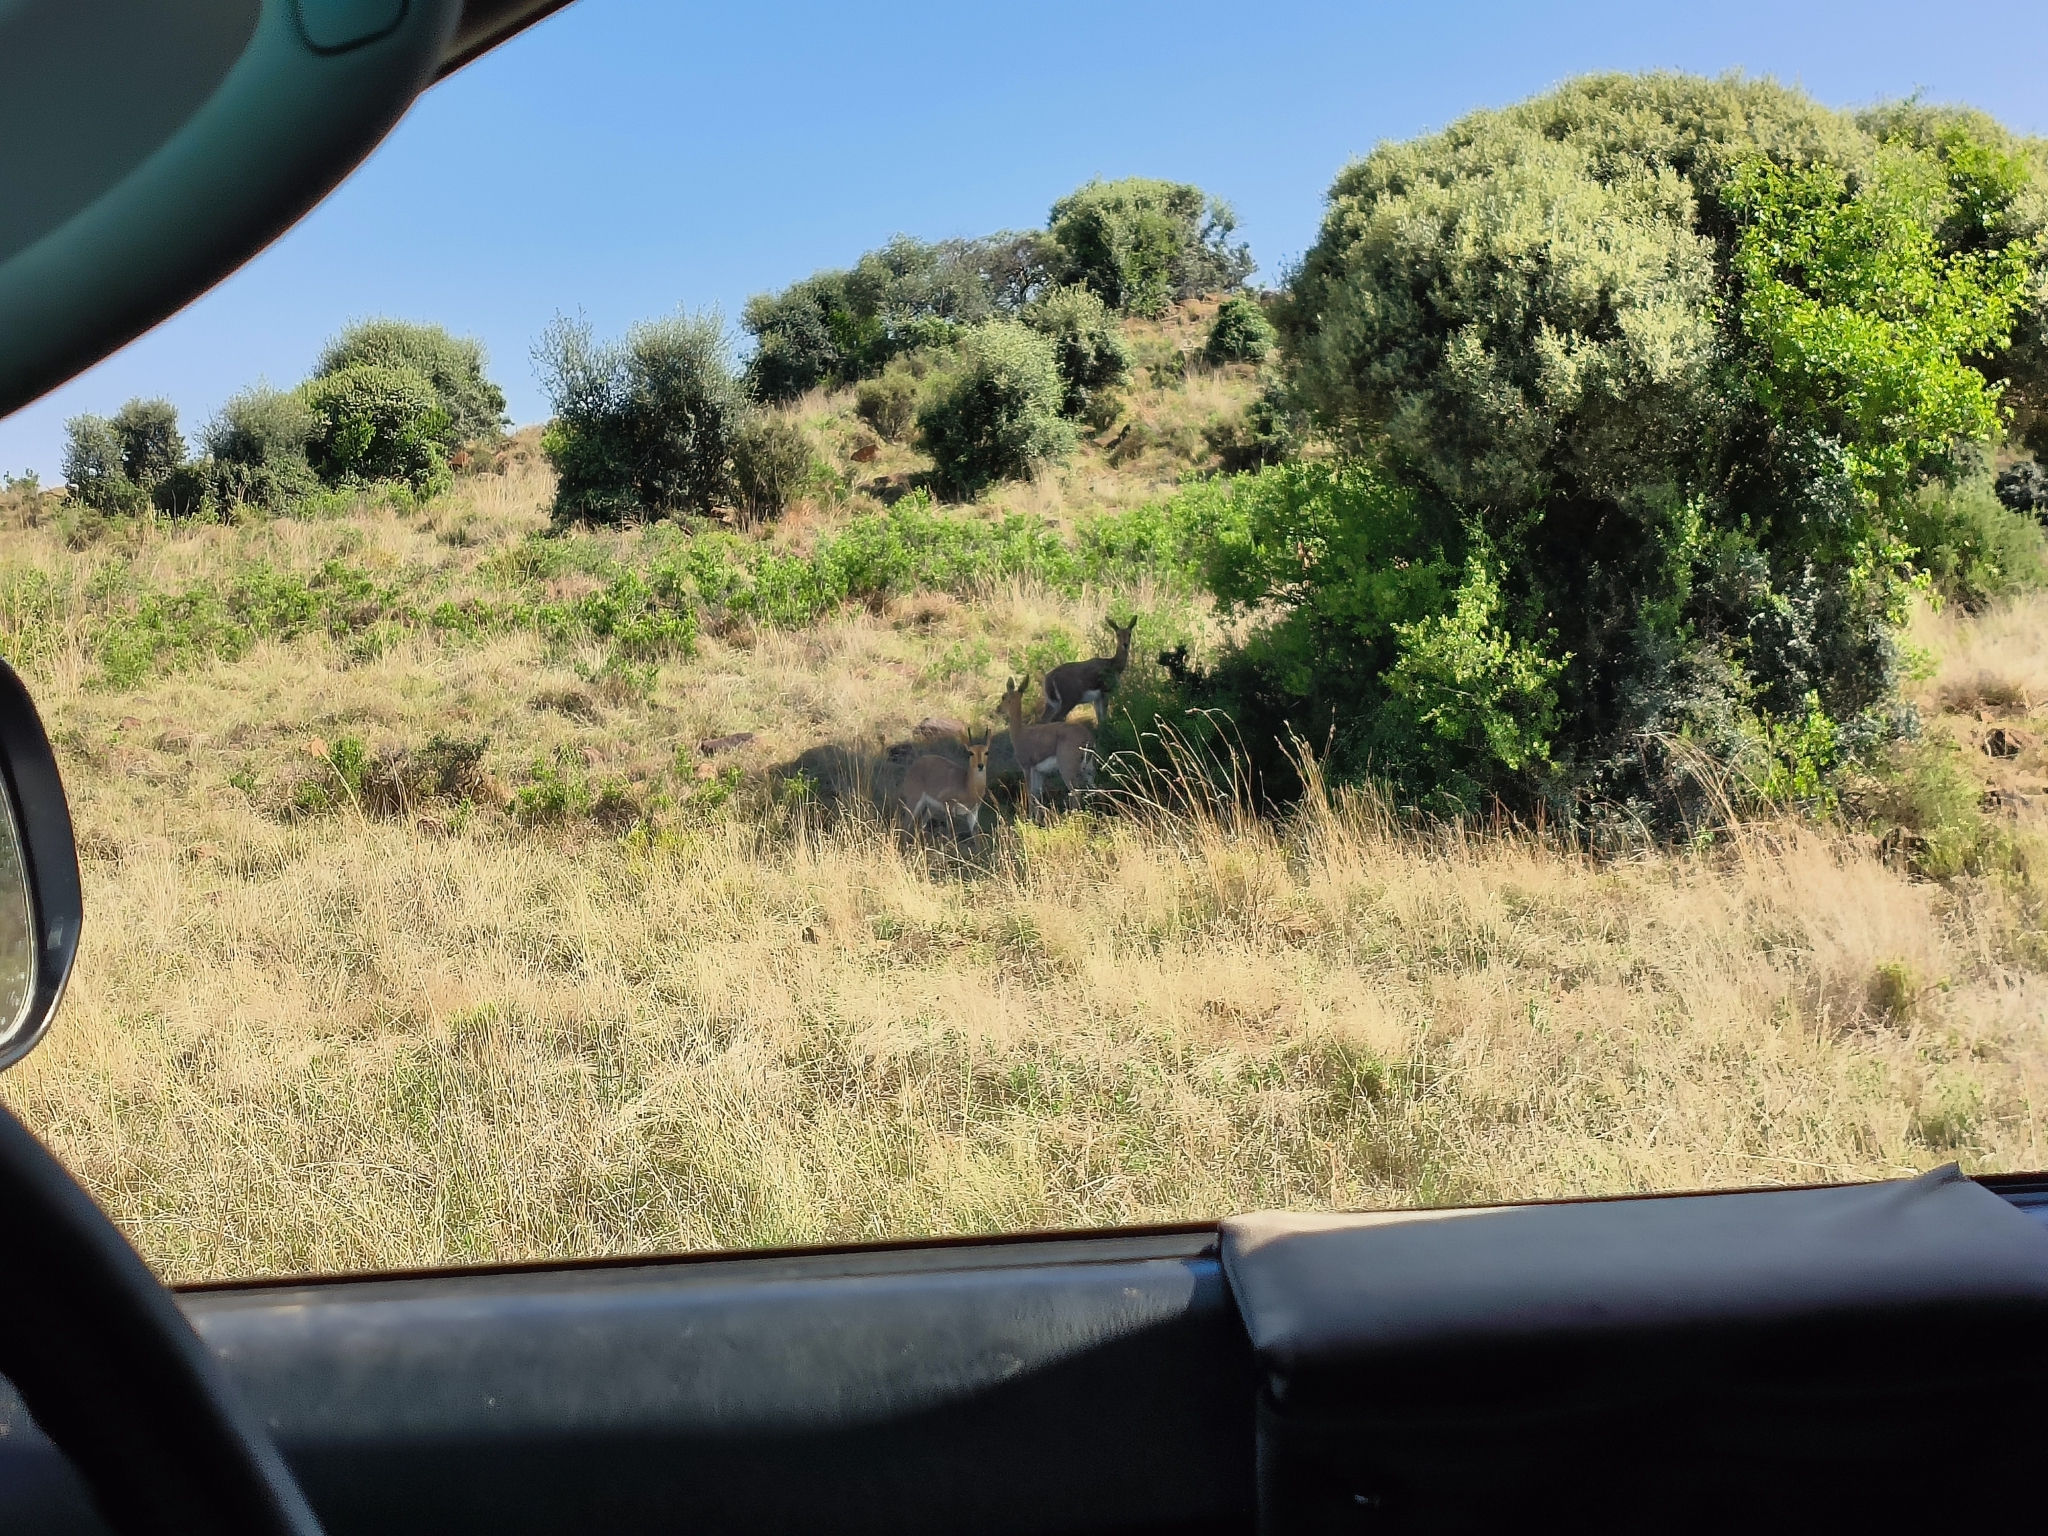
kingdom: Animalia
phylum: Chordata
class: Mammalia
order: Artiodactyla
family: Bovidae
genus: Redunca
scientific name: Redunca fulvorufula
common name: Mountain reedbuck
